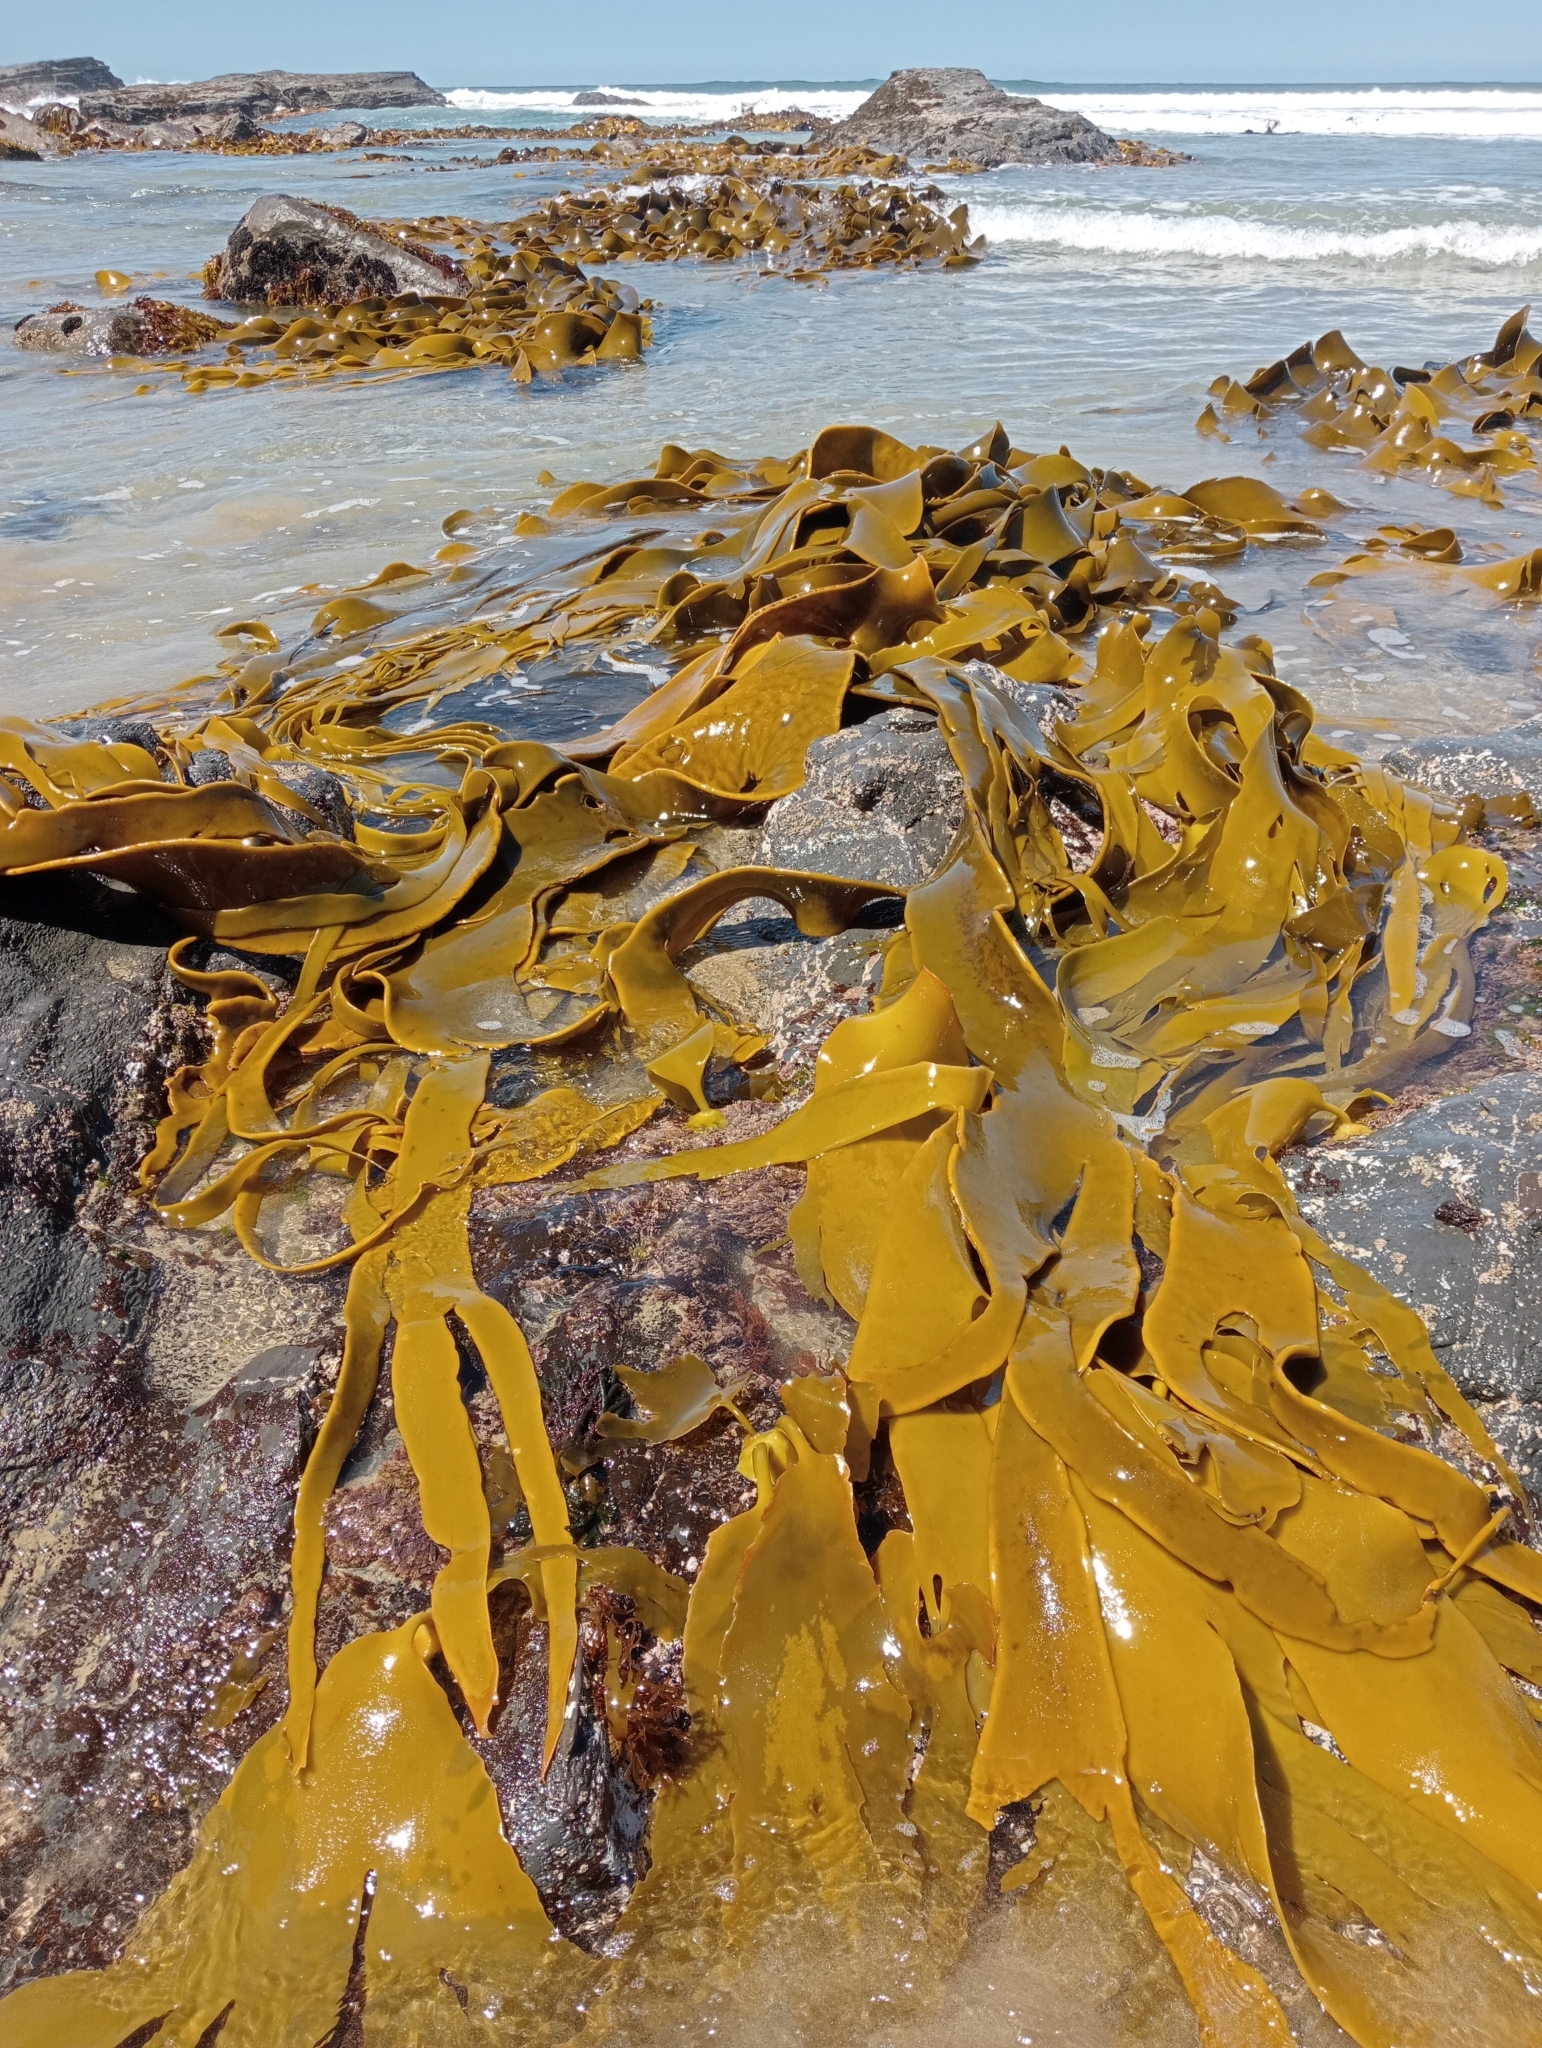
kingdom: Chromista
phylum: Ochrophyta
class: Phaeophyceae
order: Fucales
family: Durvillaeaceae
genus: Durvillaea
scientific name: Durvillaea poha
